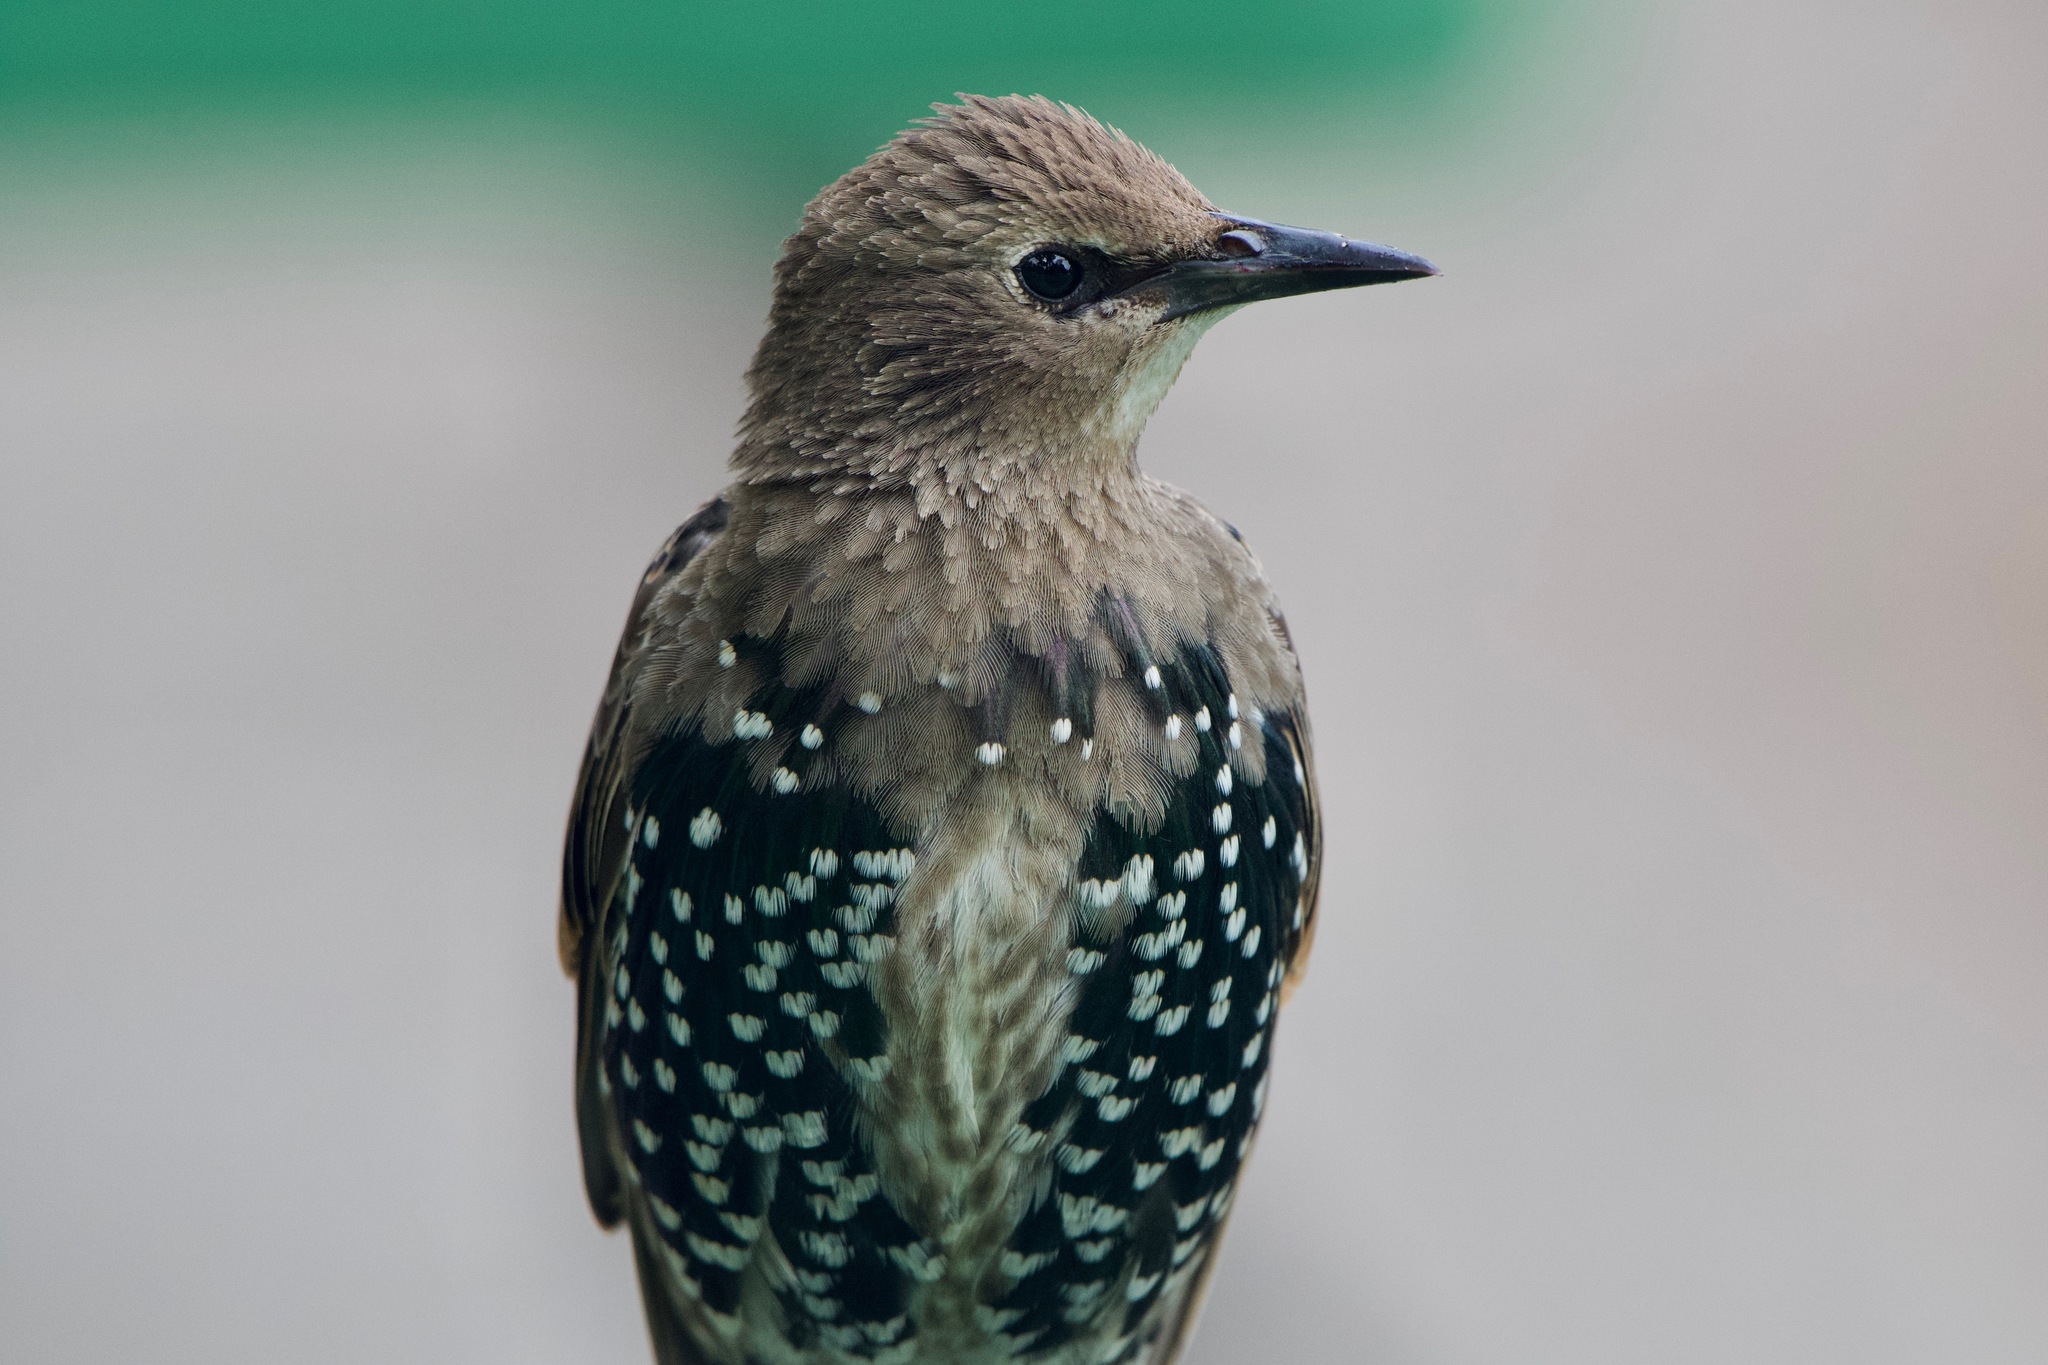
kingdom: Animalia
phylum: Chordata
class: Aves
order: Passeriformes
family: Sturnidae
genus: Sturnus
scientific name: Sturnus vulgaris
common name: Common starling
